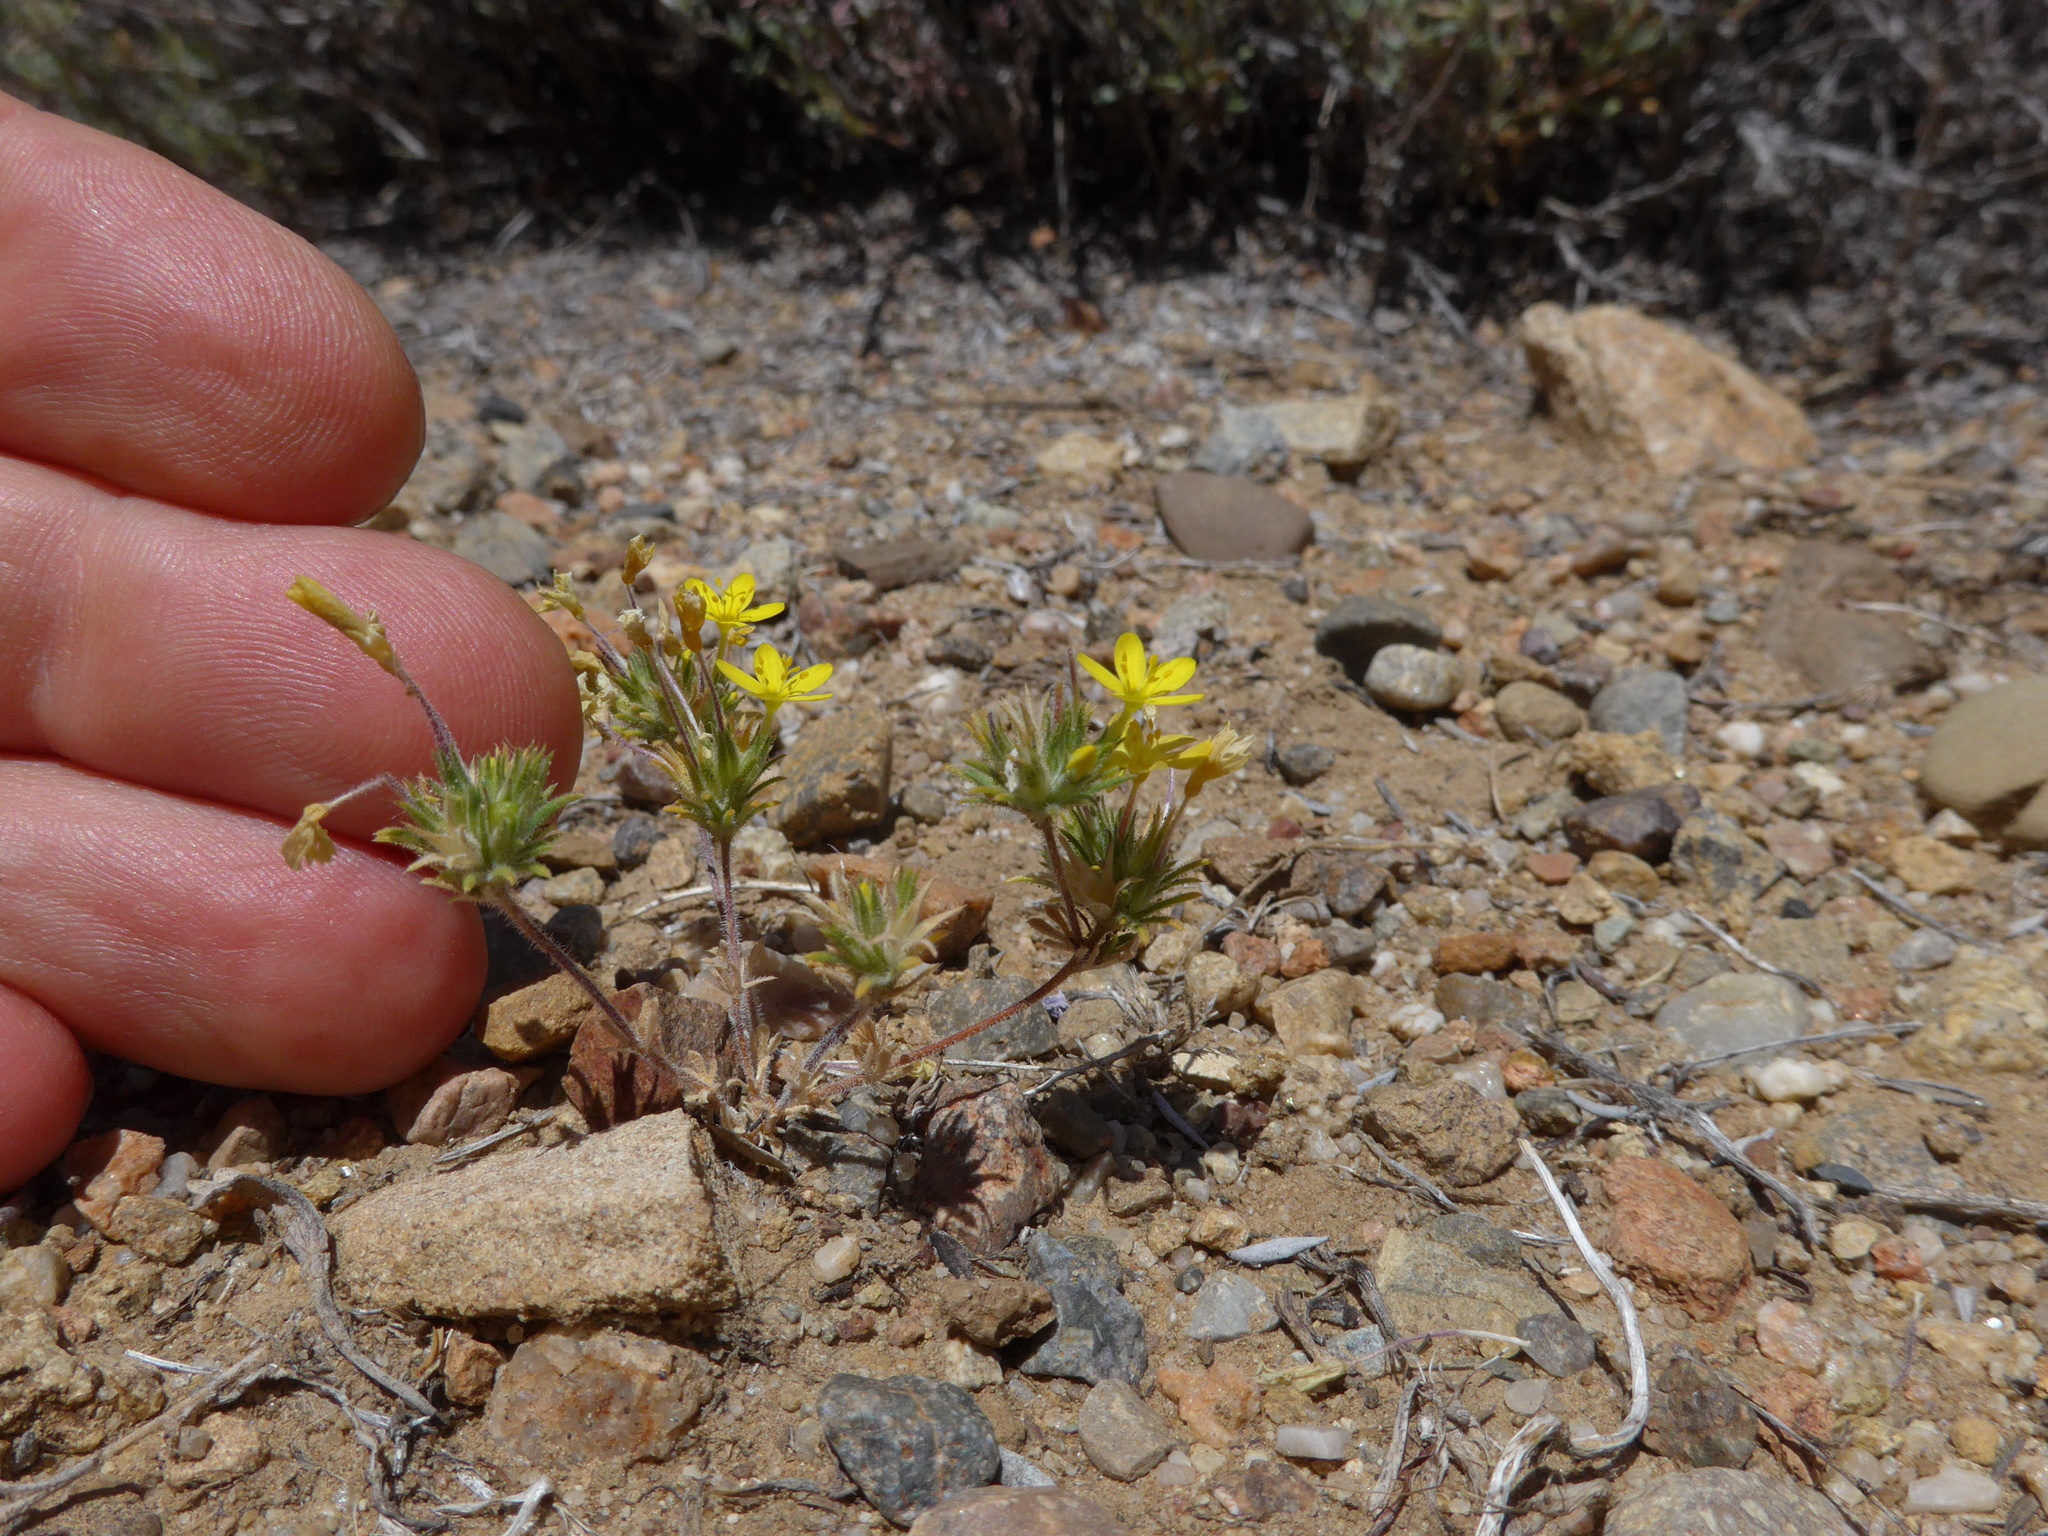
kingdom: Plantae
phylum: Tracheophyta
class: Magnoliopsida
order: Ericales
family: Polemoniaceae
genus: Leptosiphon
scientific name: Leptosiphon parviflorus
